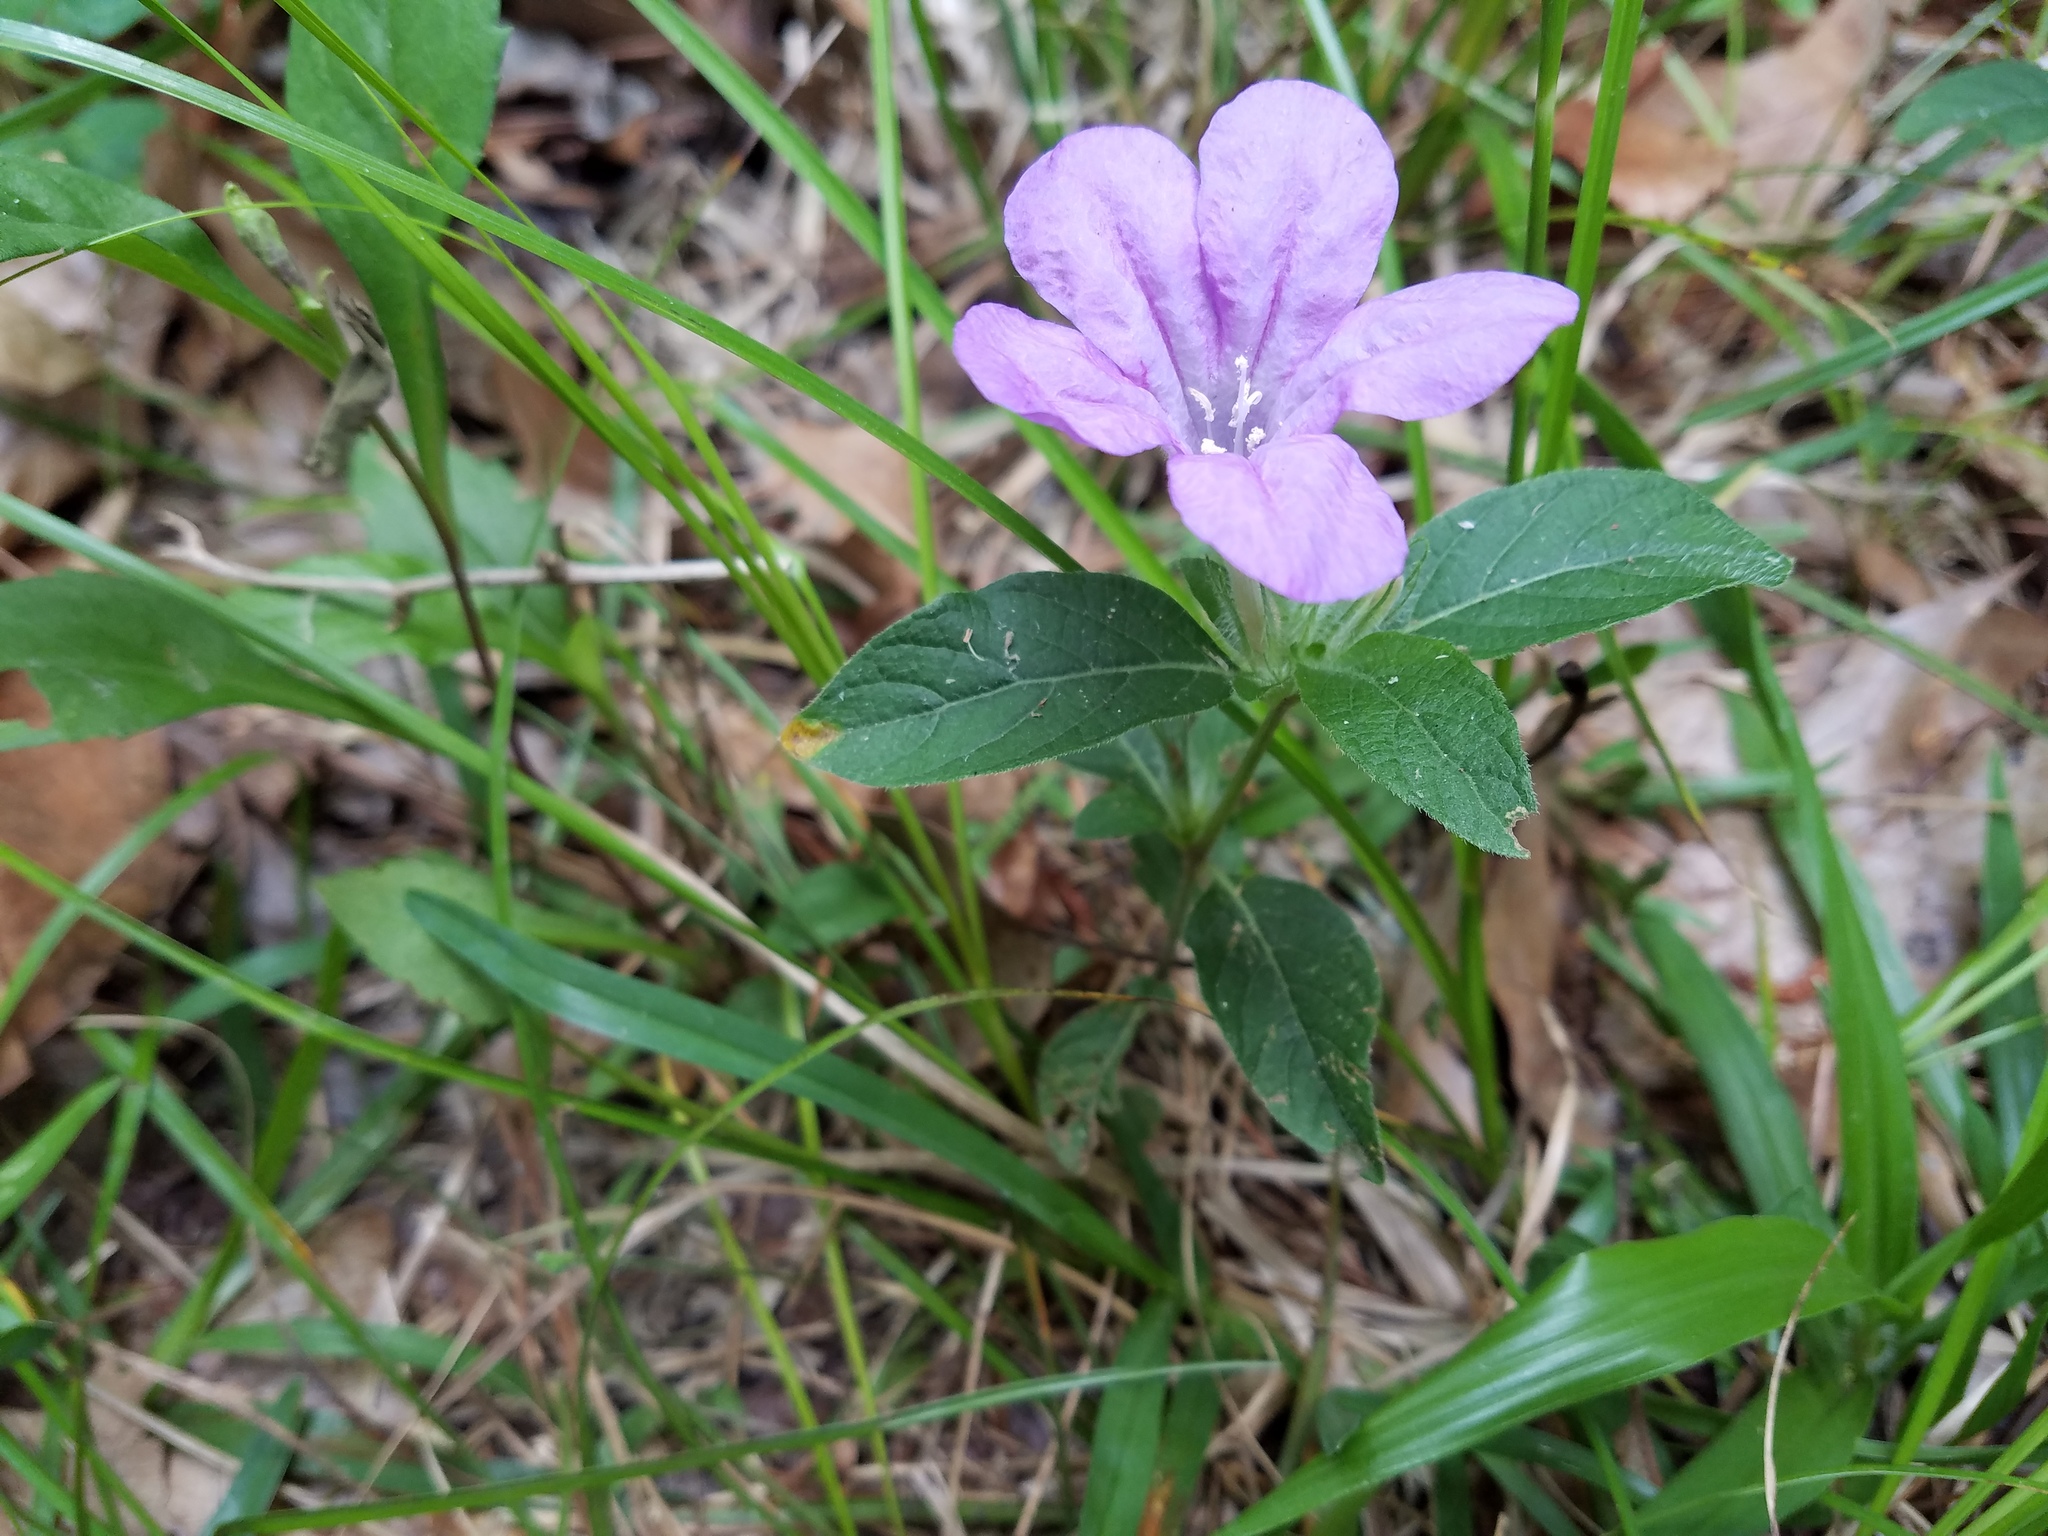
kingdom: Plantae
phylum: Tracheophyta
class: Magnoliopsida
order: Lamiales
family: Acanthaceae
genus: Ruellia
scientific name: Ruellia caroliniensis
